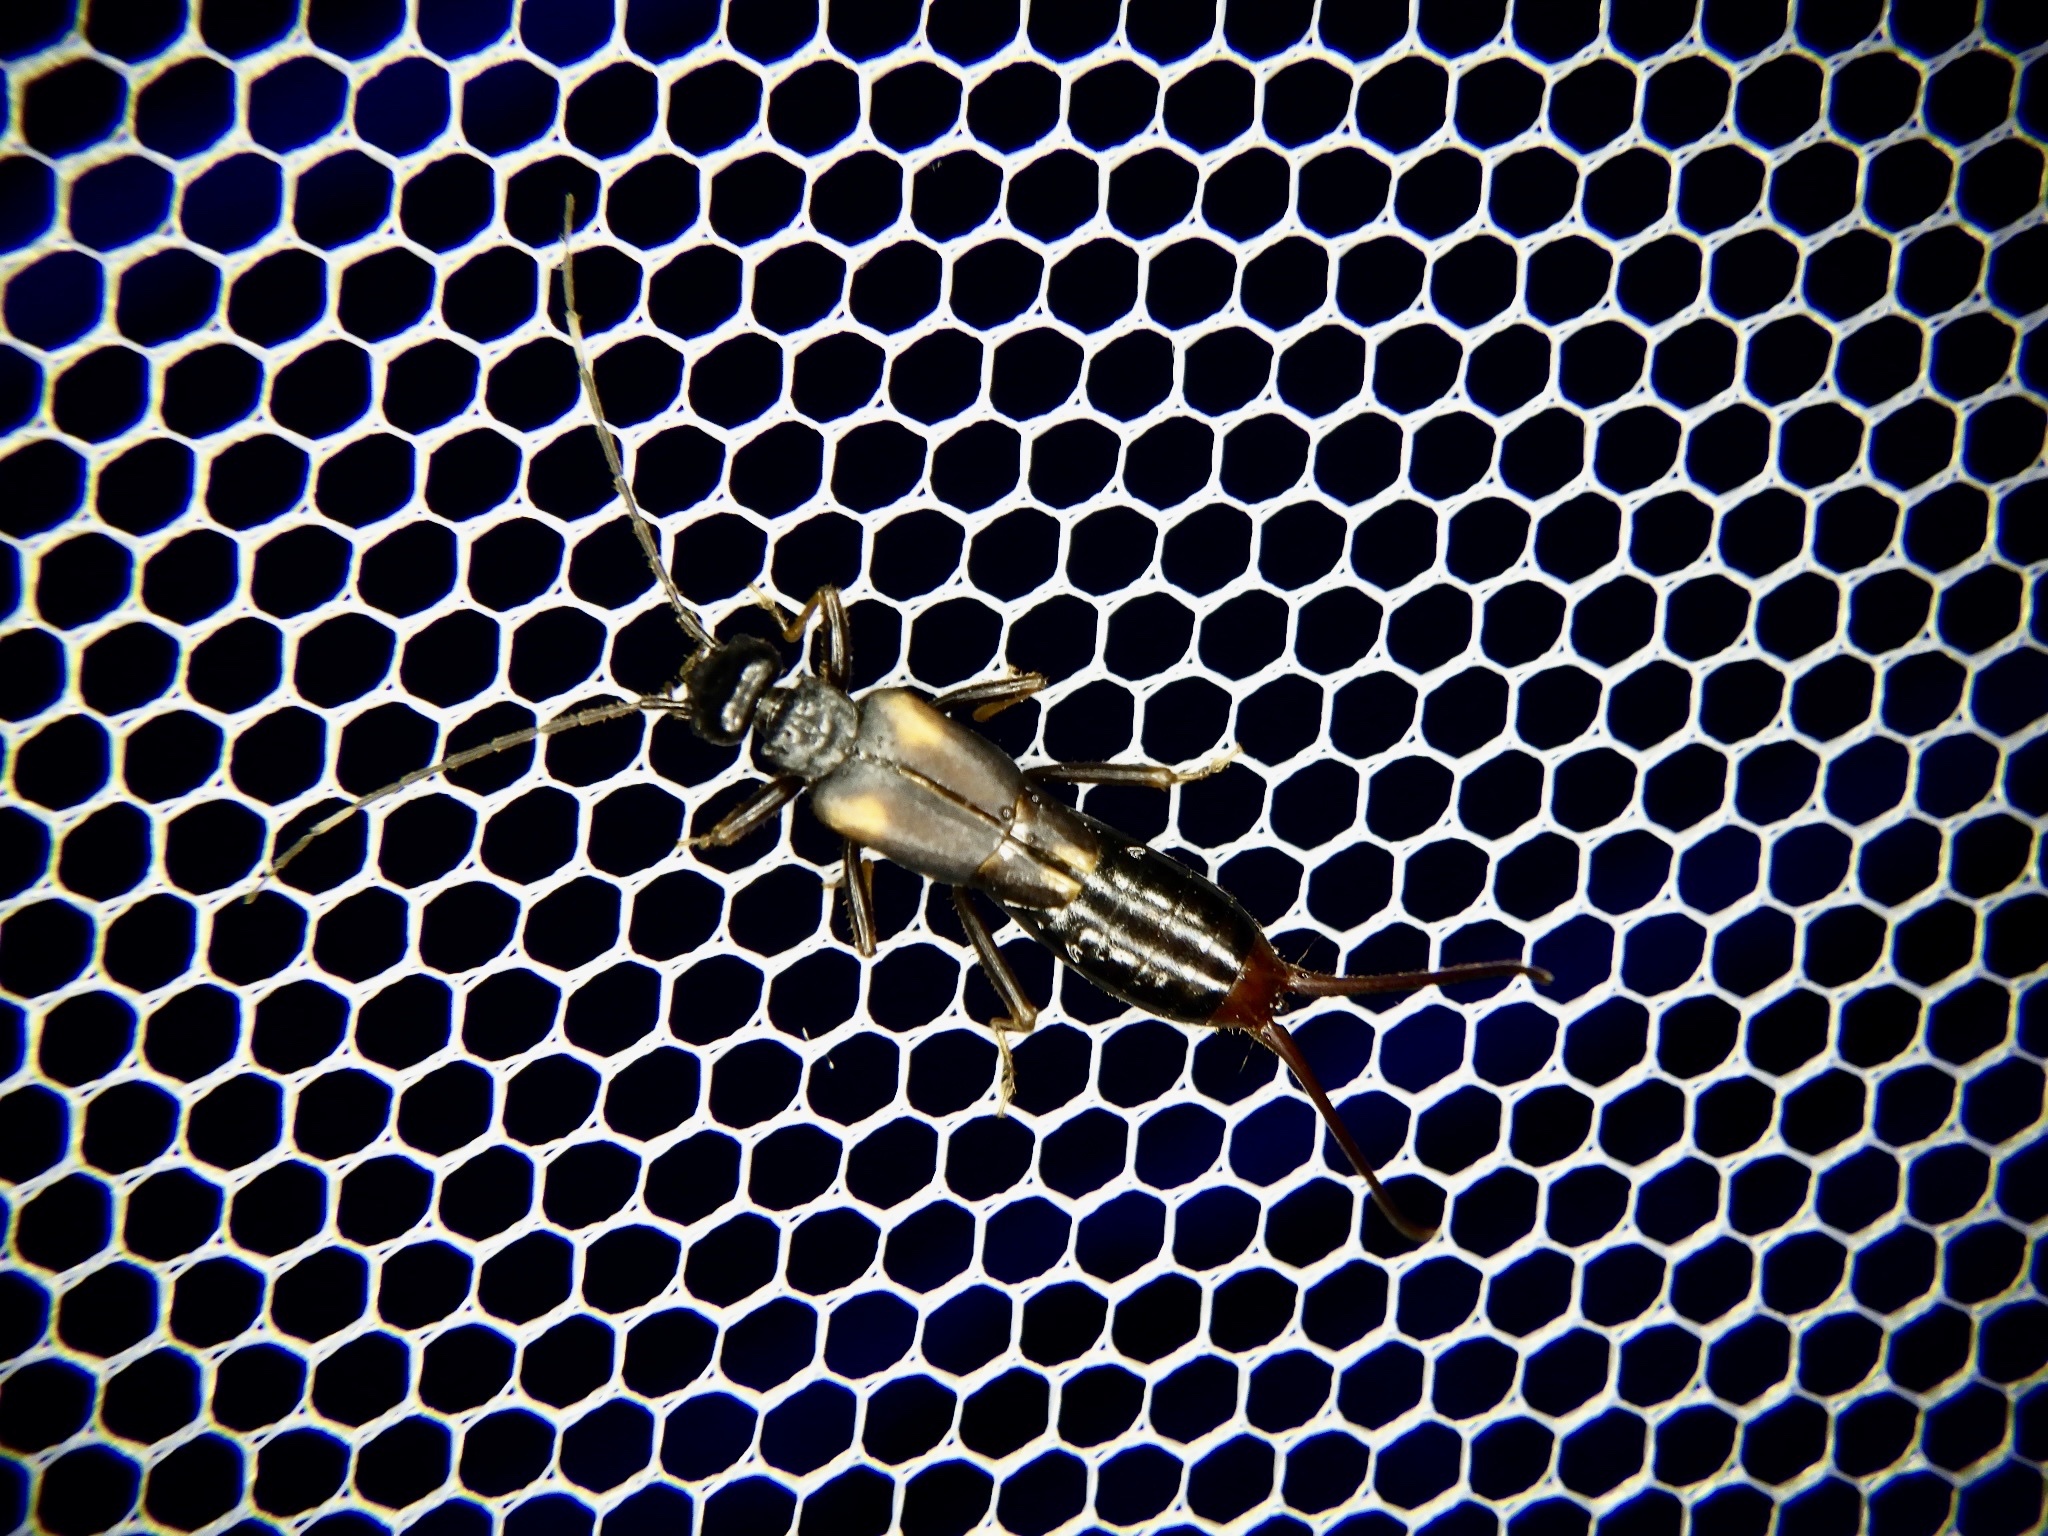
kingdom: Animalia
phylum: Arthropoda
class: Insecta
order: Dermaptera
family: Forficulidae
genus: Eparchus
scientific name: Eparchus yezoensis
